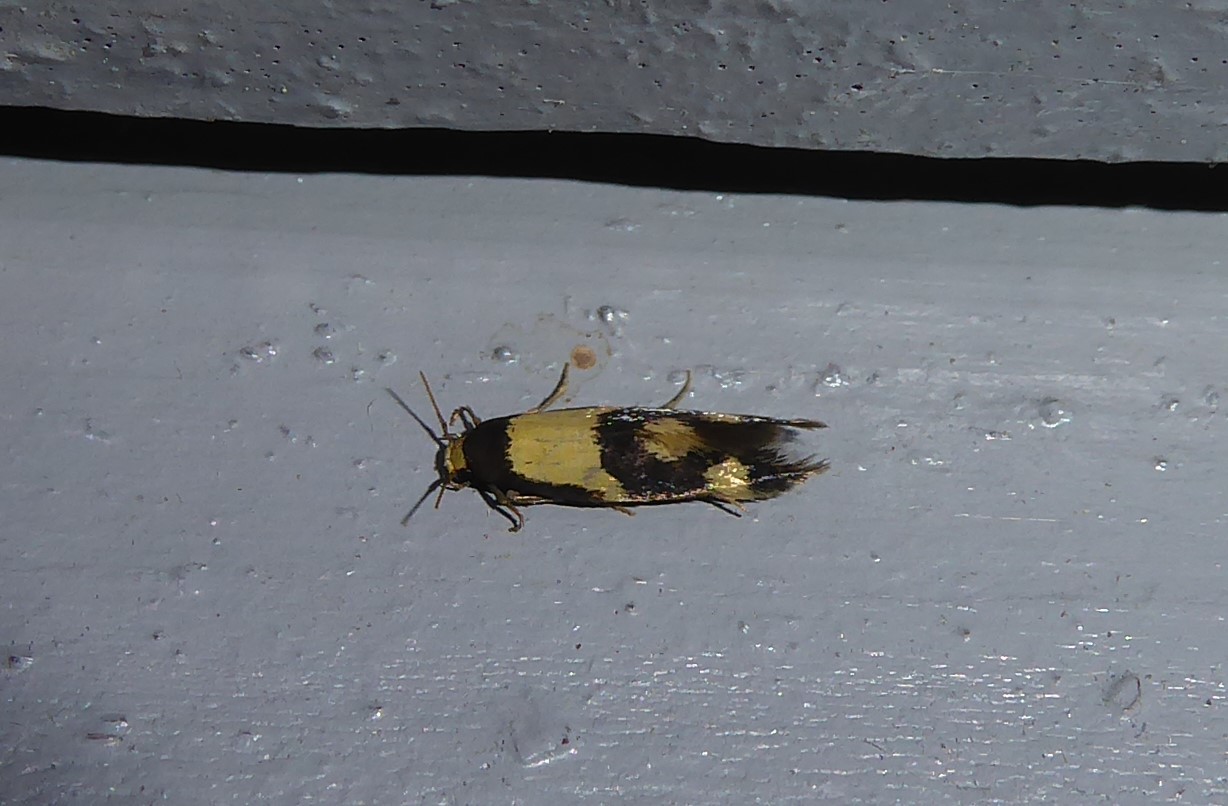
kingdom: Animalia
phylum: Arthropoda
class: Insecta
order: Lepidoptera
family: Tineidae
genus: Opogona
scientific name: Opogona comptella
